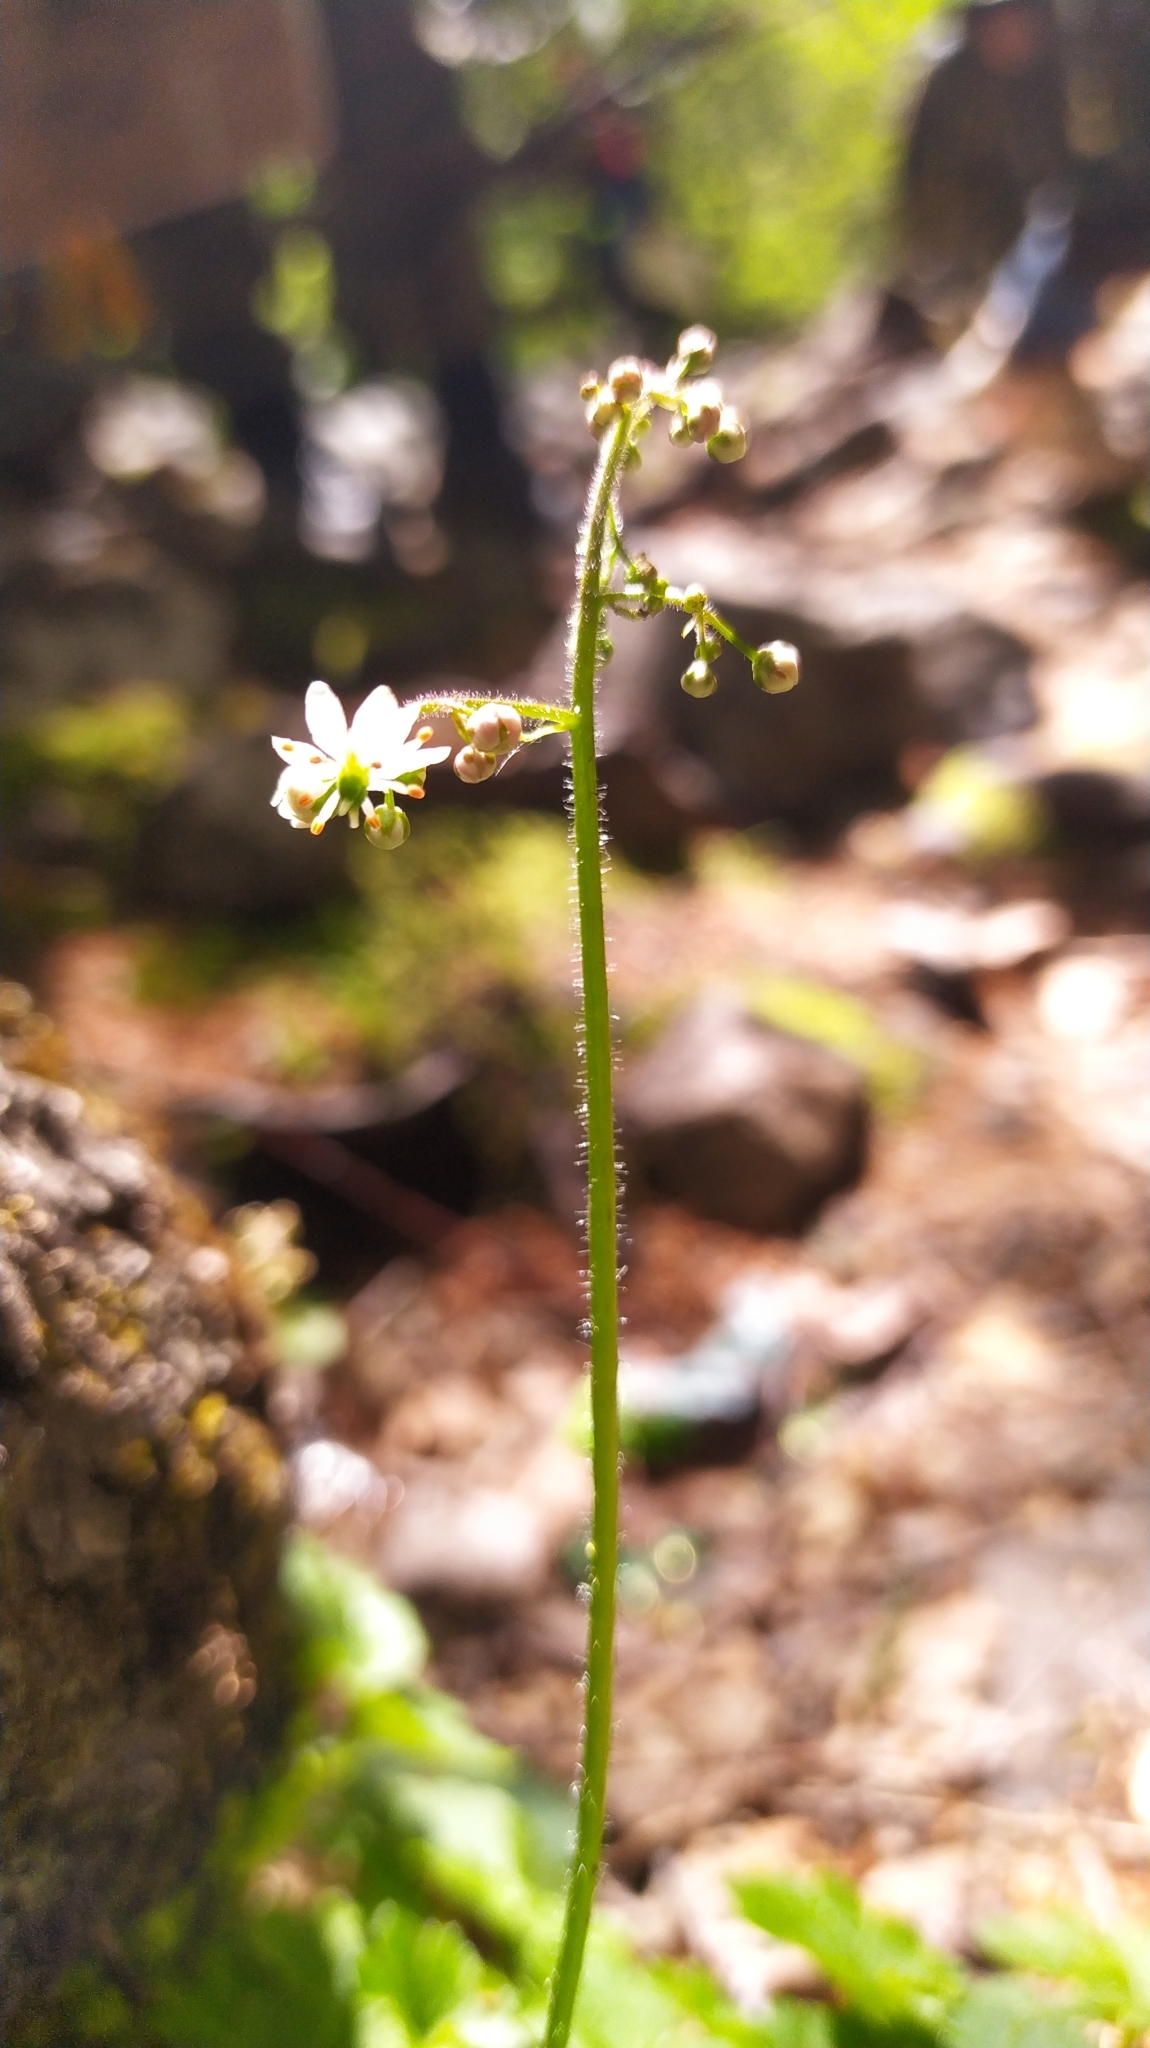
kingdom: Plantae
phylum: Tracheophyta
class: Magnoliopsida
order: Saxifragales
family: Saxifragaceae
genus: Micranthes
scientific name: Micranthes nelsoniana
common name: Nelson's saxifrage
